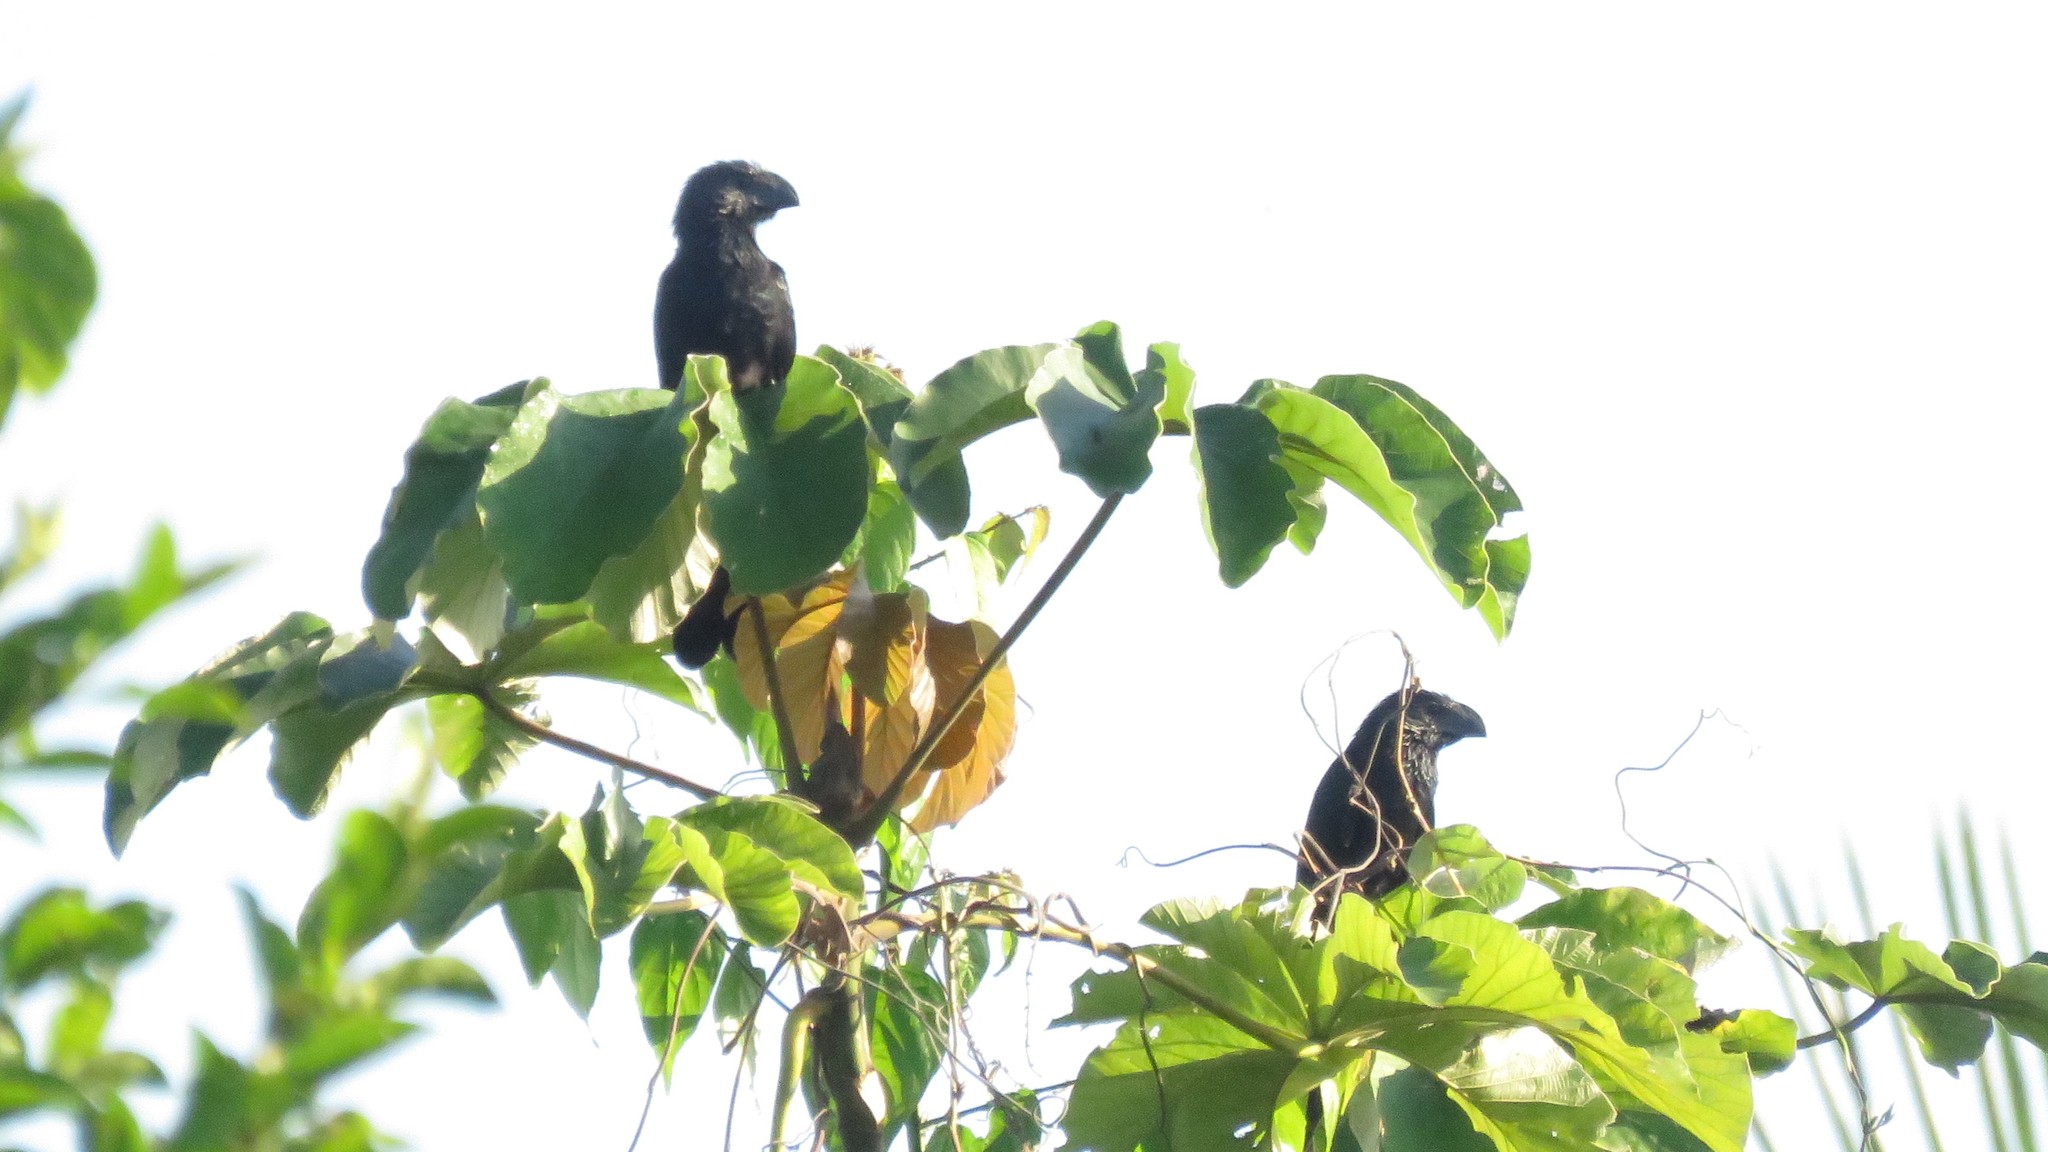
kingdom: Animalia
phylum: Chordata
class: Aves
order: Cuculiformes
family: Cuculidae
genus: Crotophaga
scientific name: Crotophaga sulcirostris
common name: Groove-billed ani
